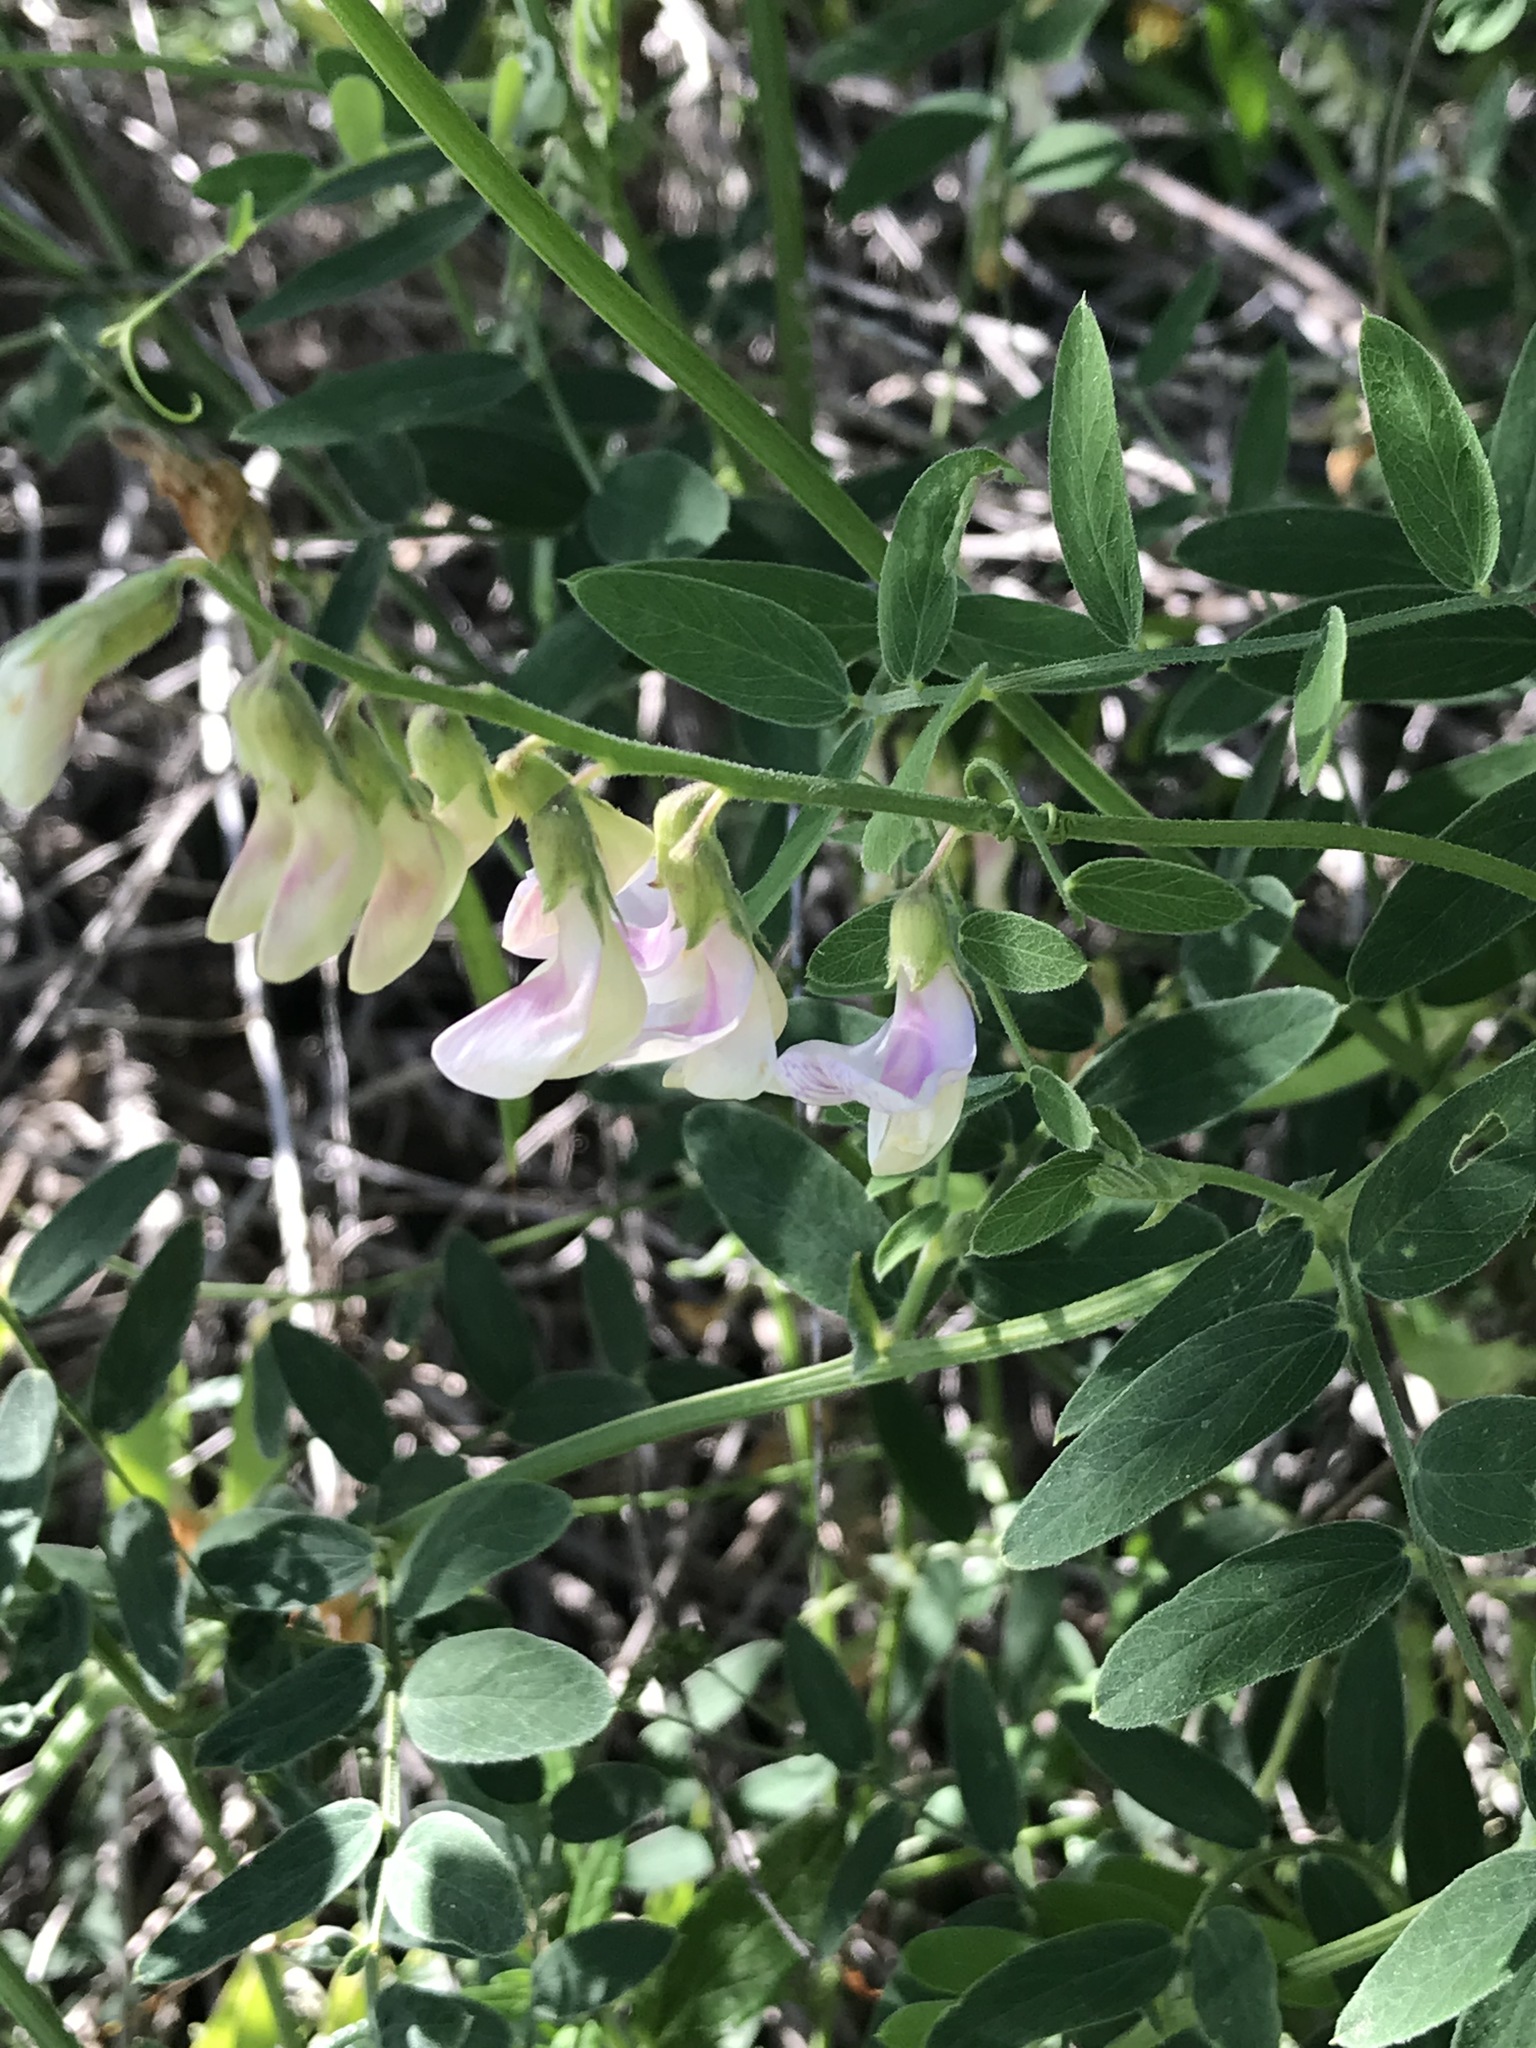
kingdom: Plantae
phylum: Tracheophyta
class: Magnoliopsida
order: Fabales
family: Fabaceae
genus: Lathyrus
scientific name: Lathyrus vestitus
